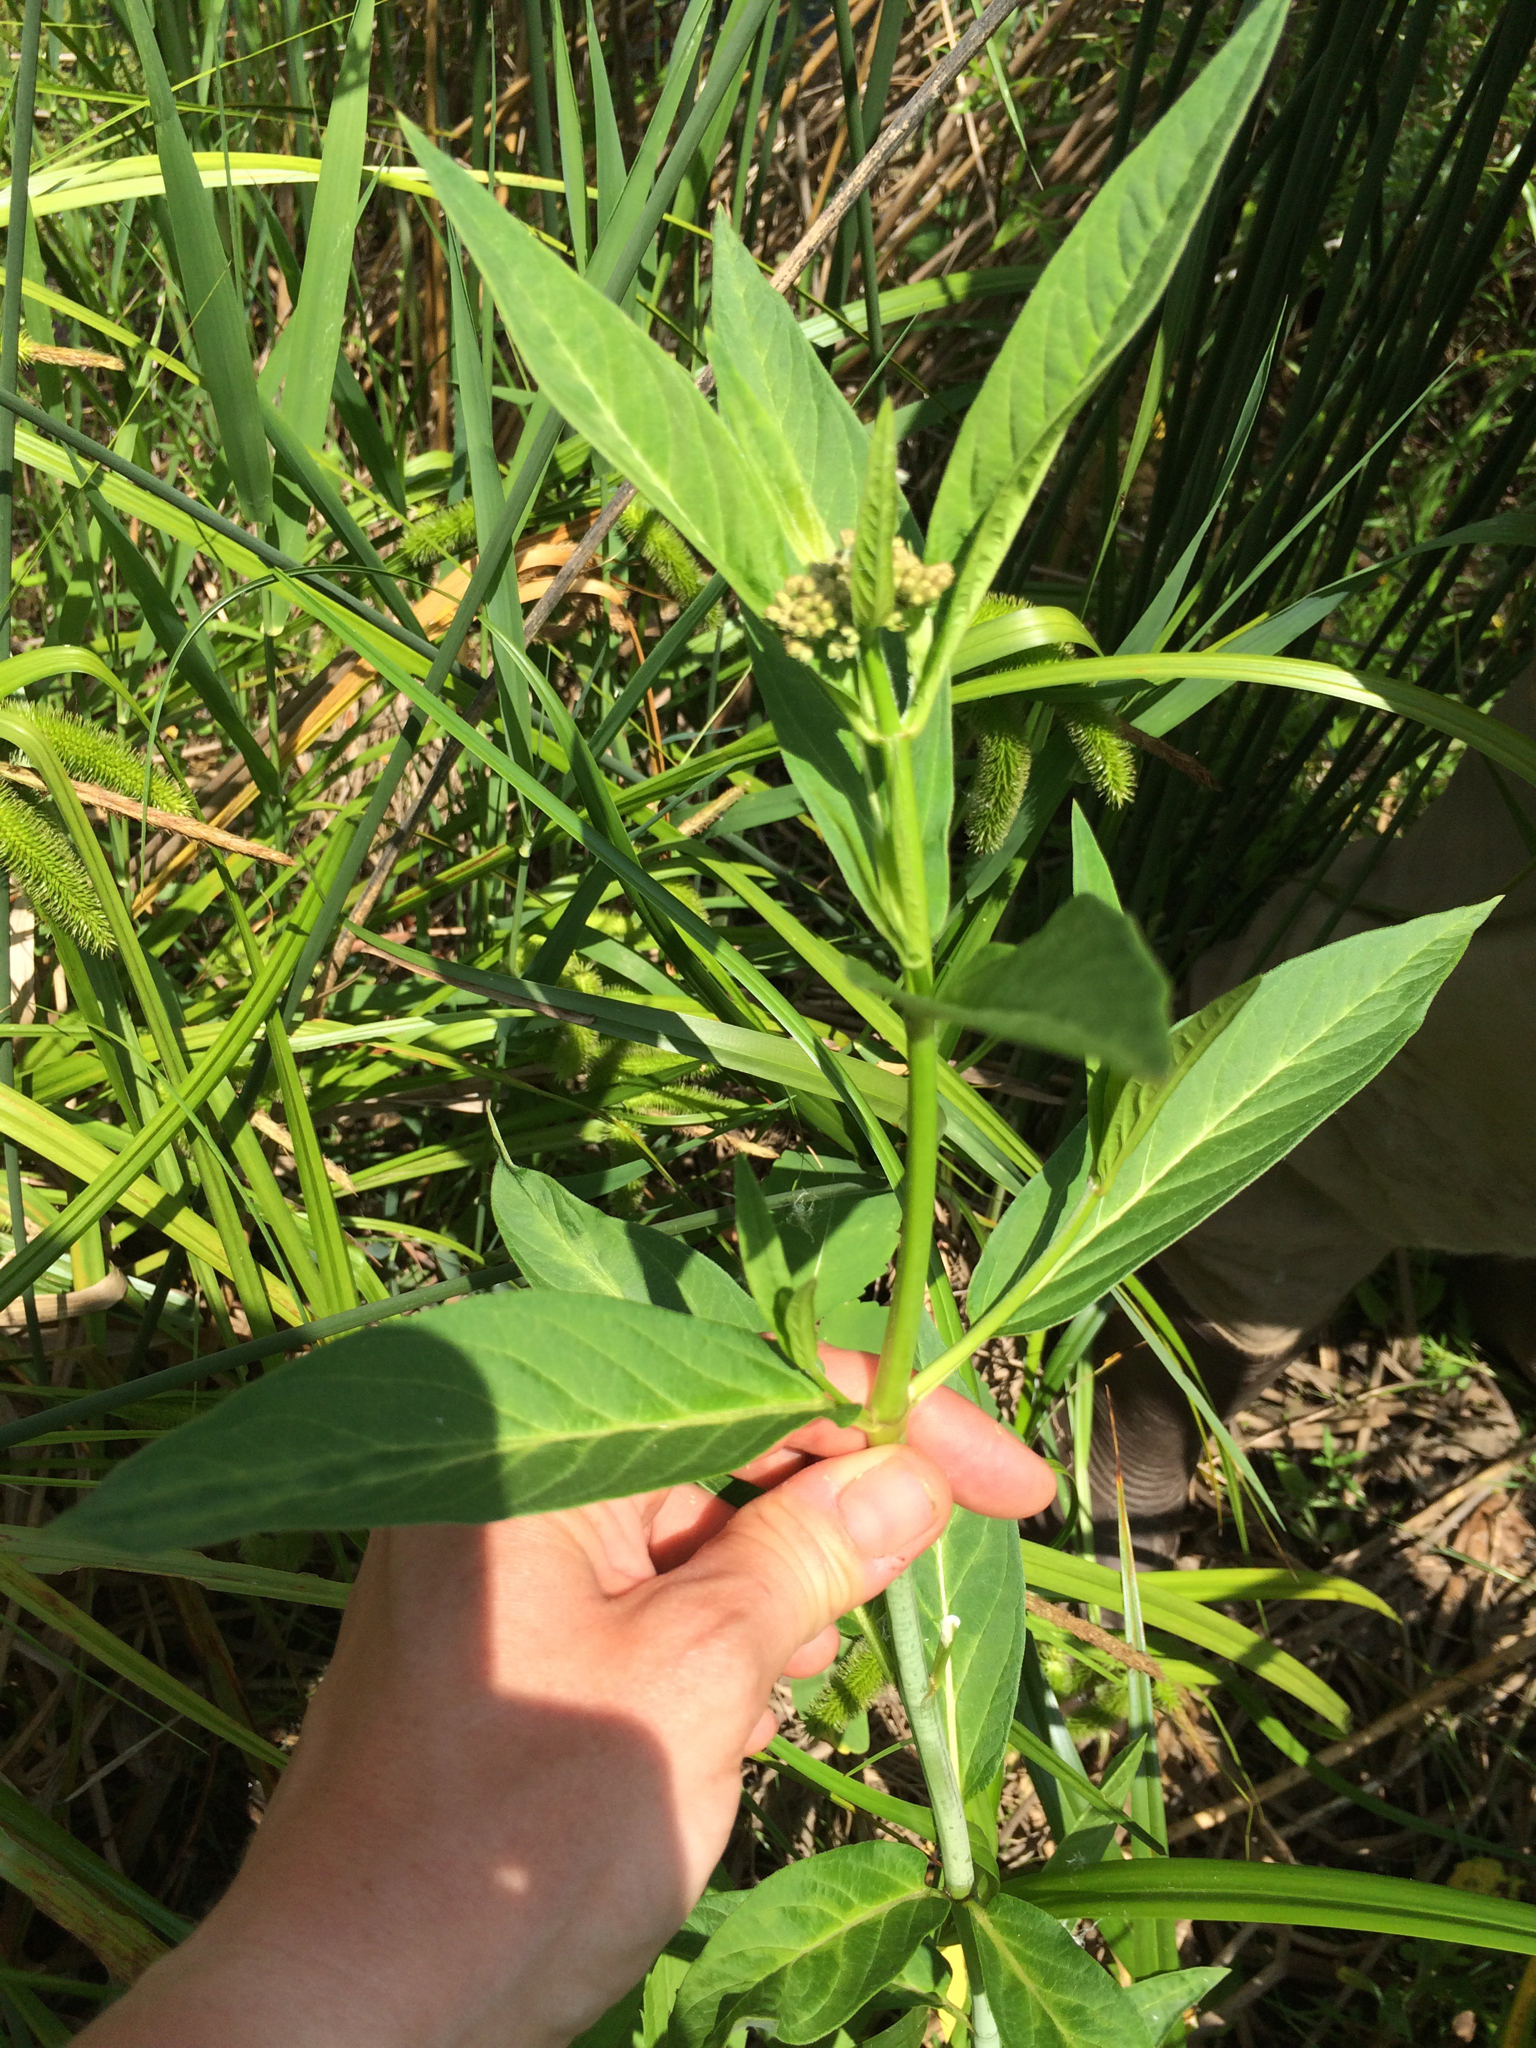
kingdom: Plantae
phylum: Tracheophyta
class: Magnoliopsida
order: Gentianales
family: Apocynaceae
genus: Asclepias
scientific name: Asclepias incarnata
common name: Swamp milkweed
